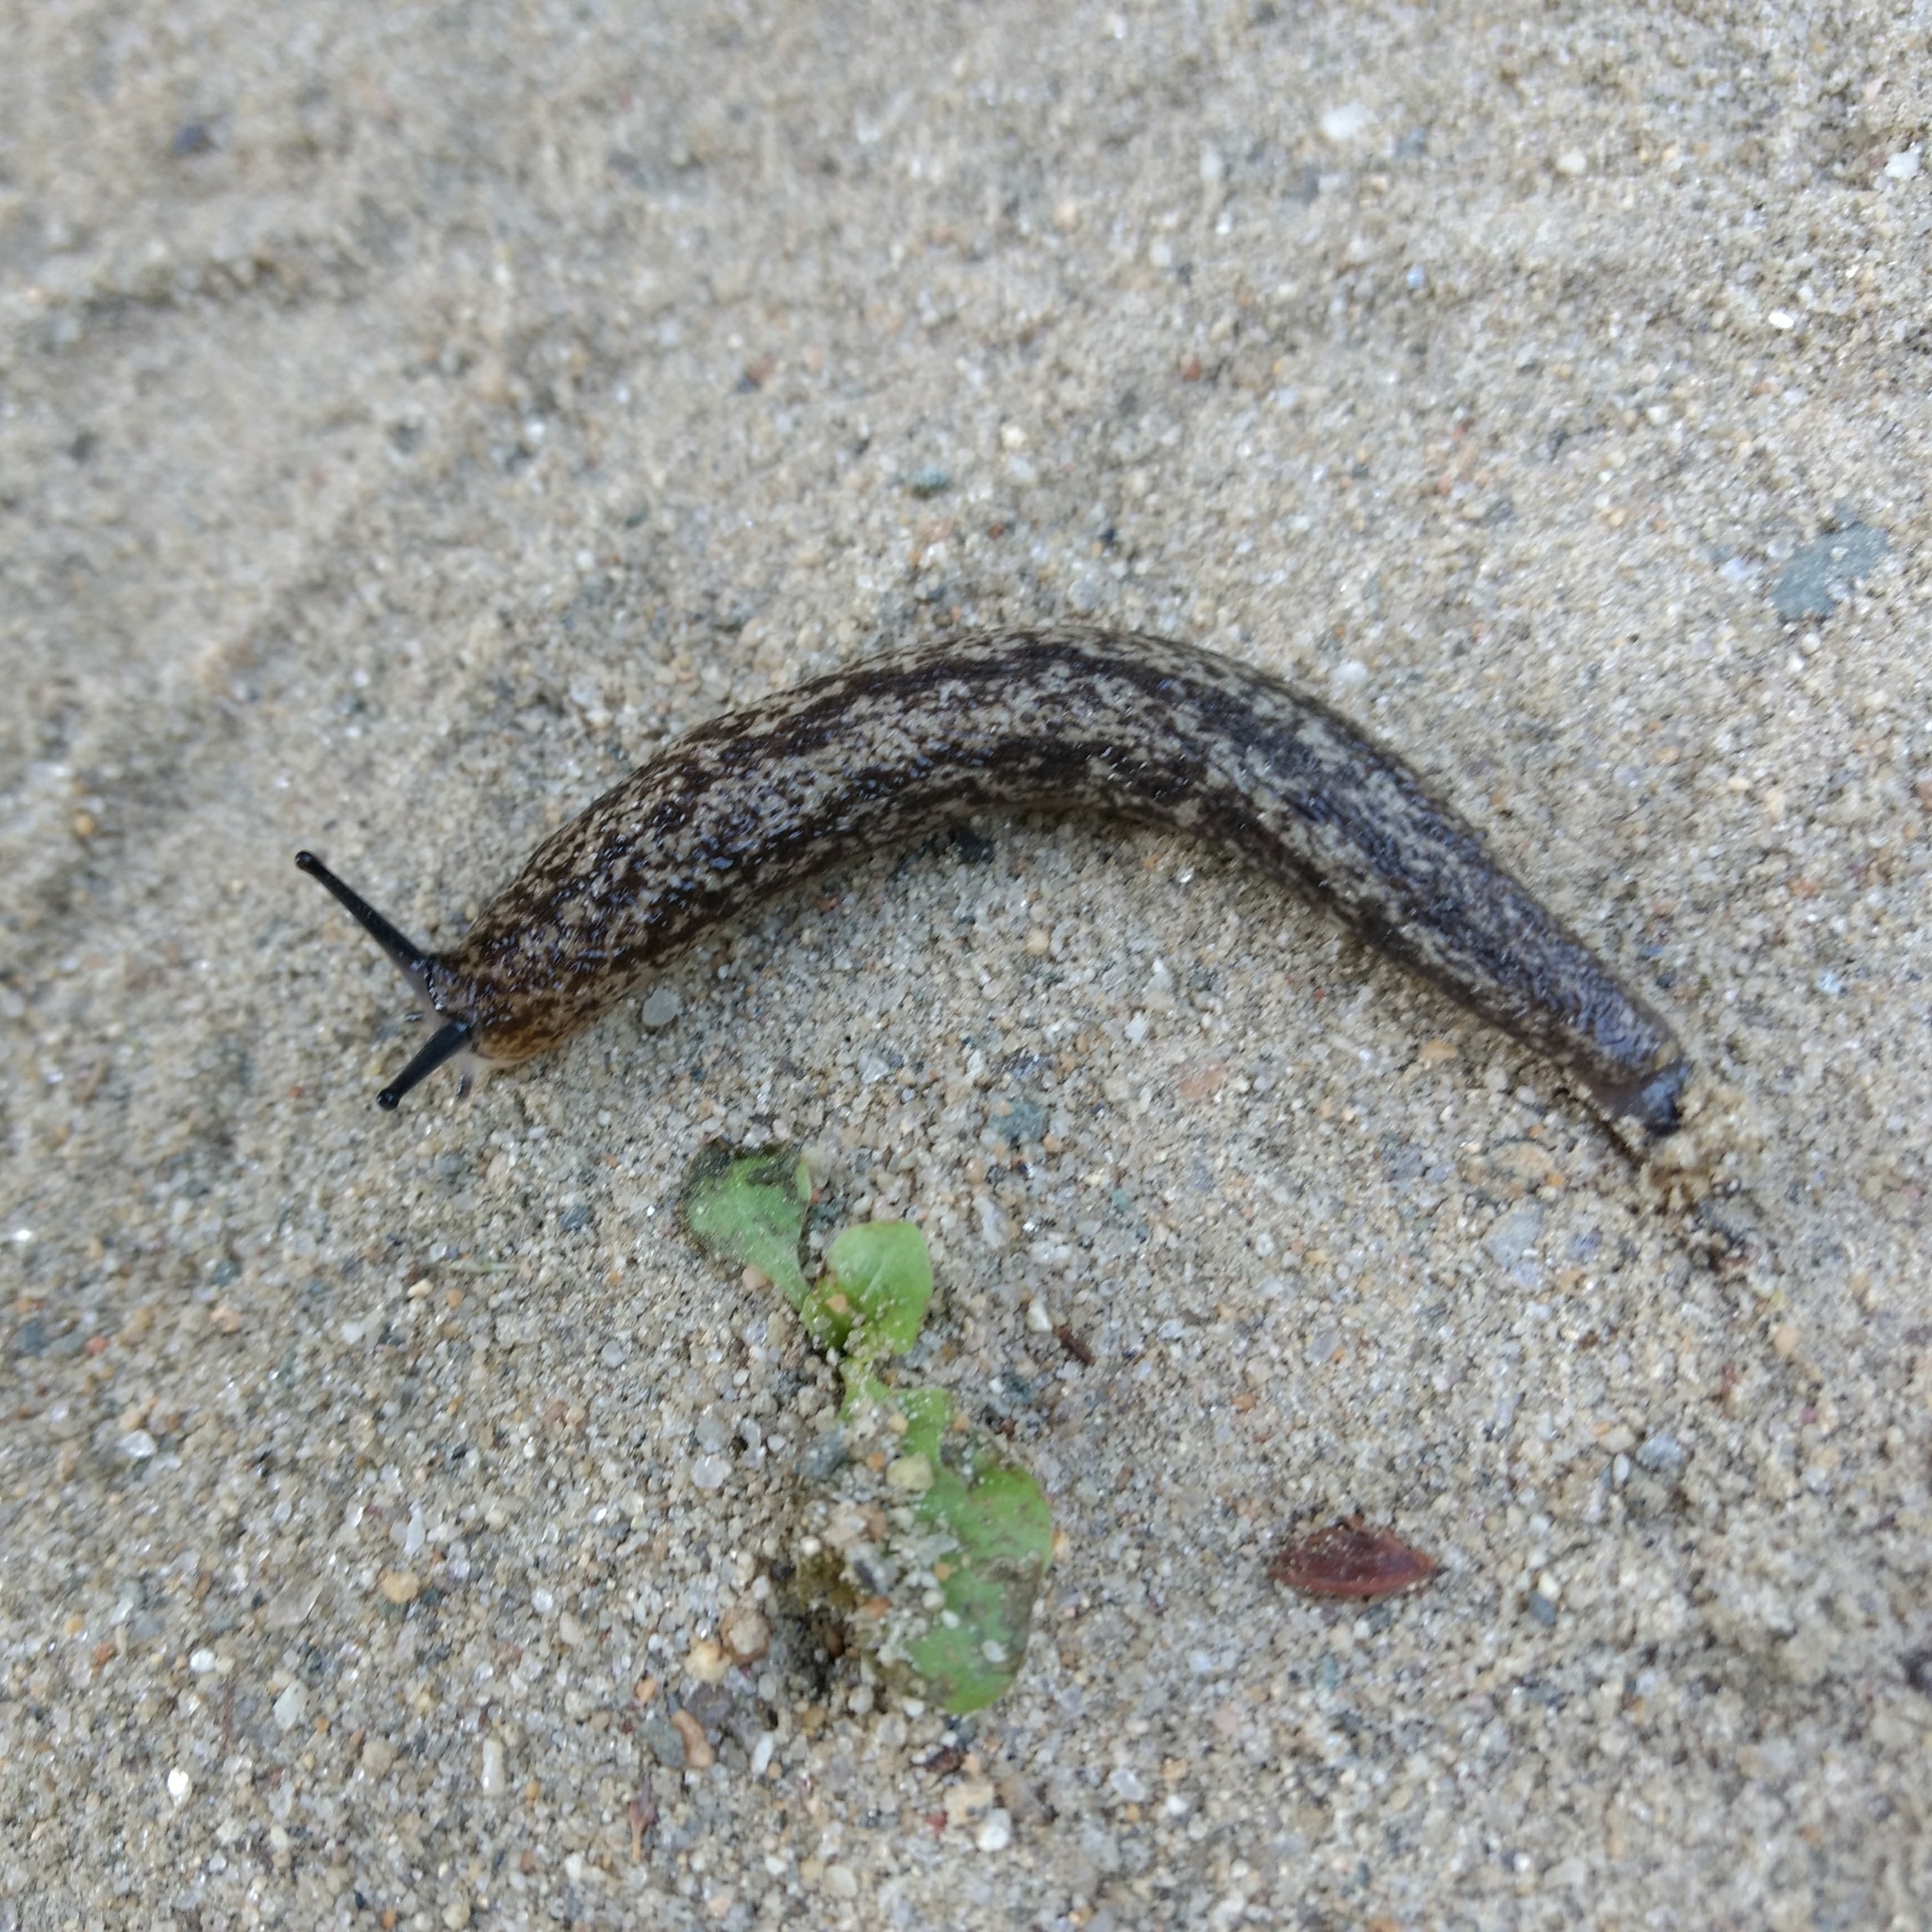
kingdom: Animalia
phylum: Mollusca
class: Gastropoda
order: Stylommatophora
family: Philomycidae
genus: Philomycus
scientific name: Philomycus flexuolaris
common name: Winding mantleslug
